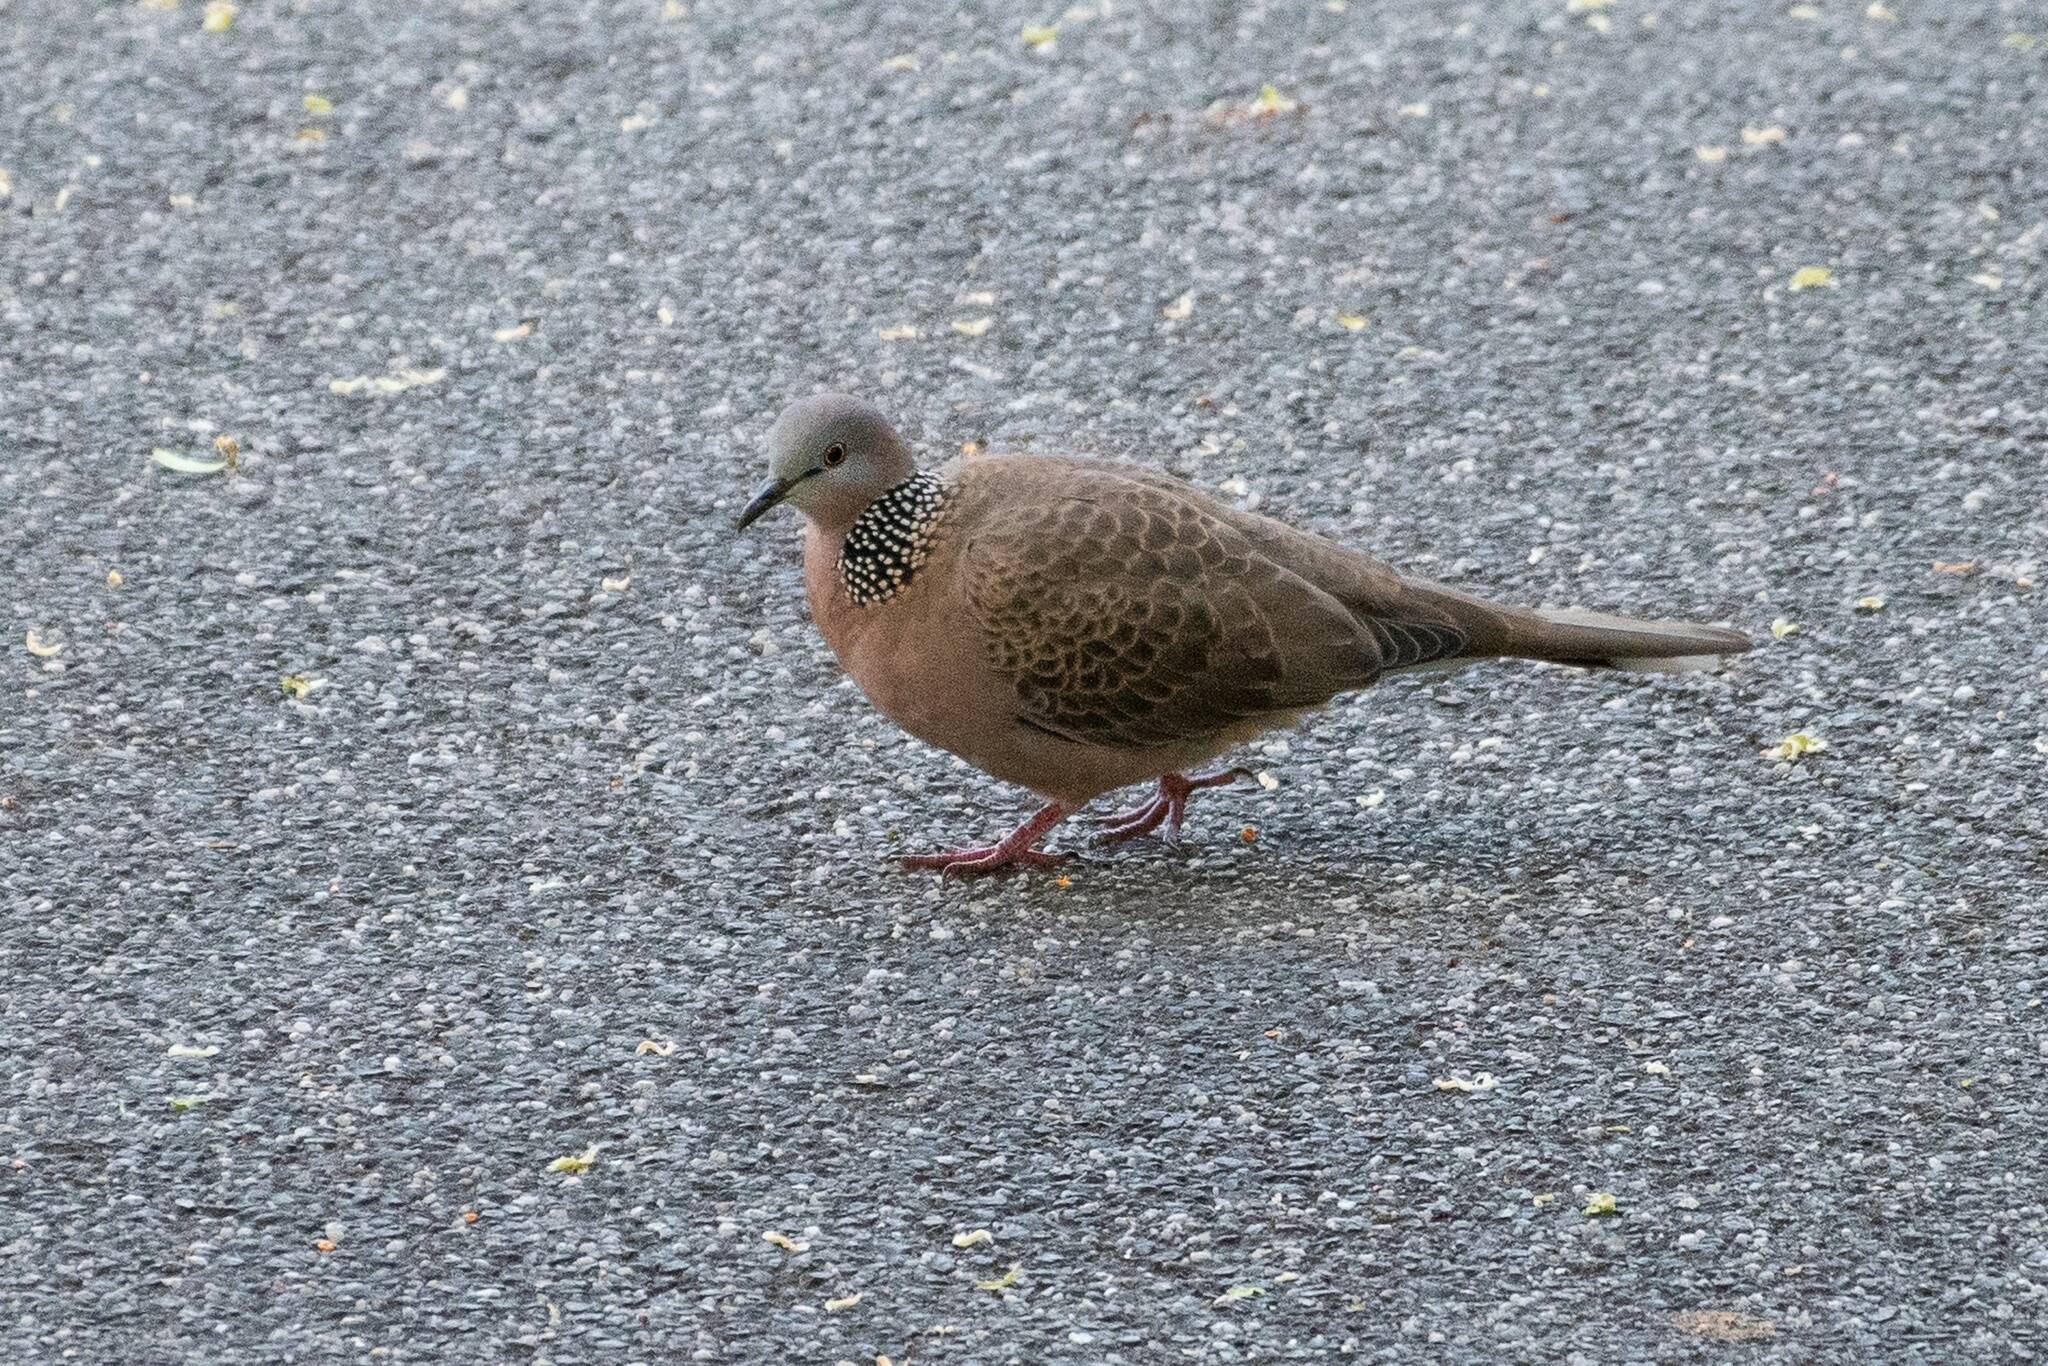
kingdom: Animalia
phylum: Chordata
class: Aves
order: Columbiformes
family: Columbidae
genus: Spilopelia
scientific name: Spilopelia chinensis
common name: Spotted dove
